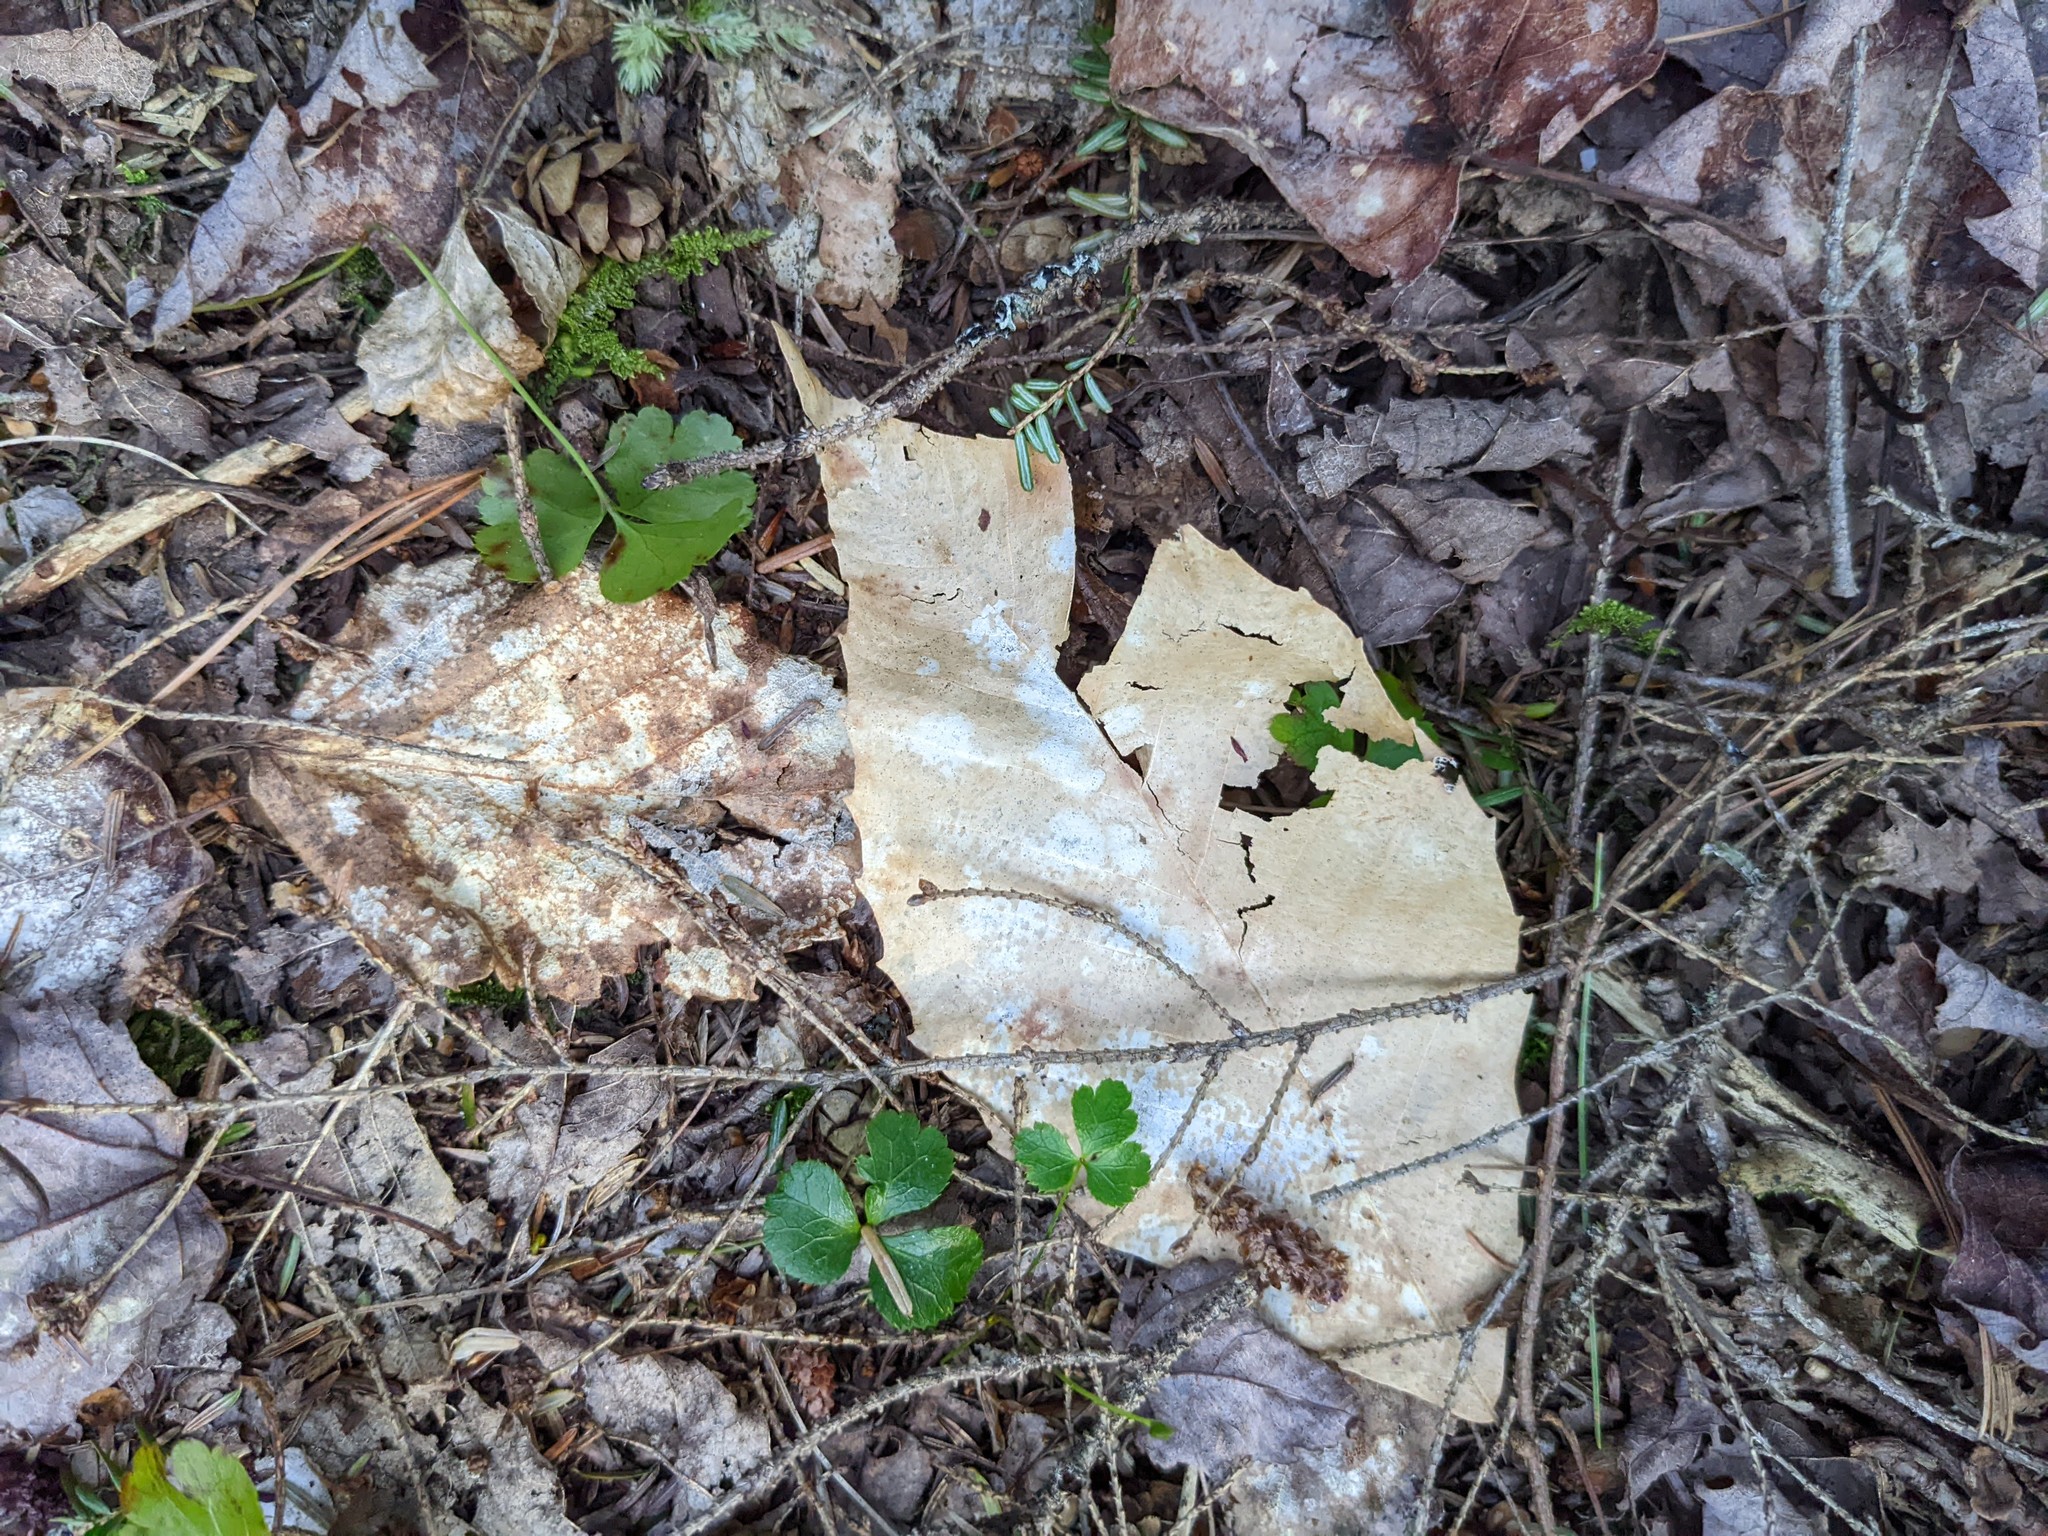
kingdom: Plantae
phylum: Tracheophyta
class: Magnoliopsida
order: Ranunculales
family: Ranunculaceae
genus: Coptis
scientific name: Coptis trifolia
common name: Canker-root
